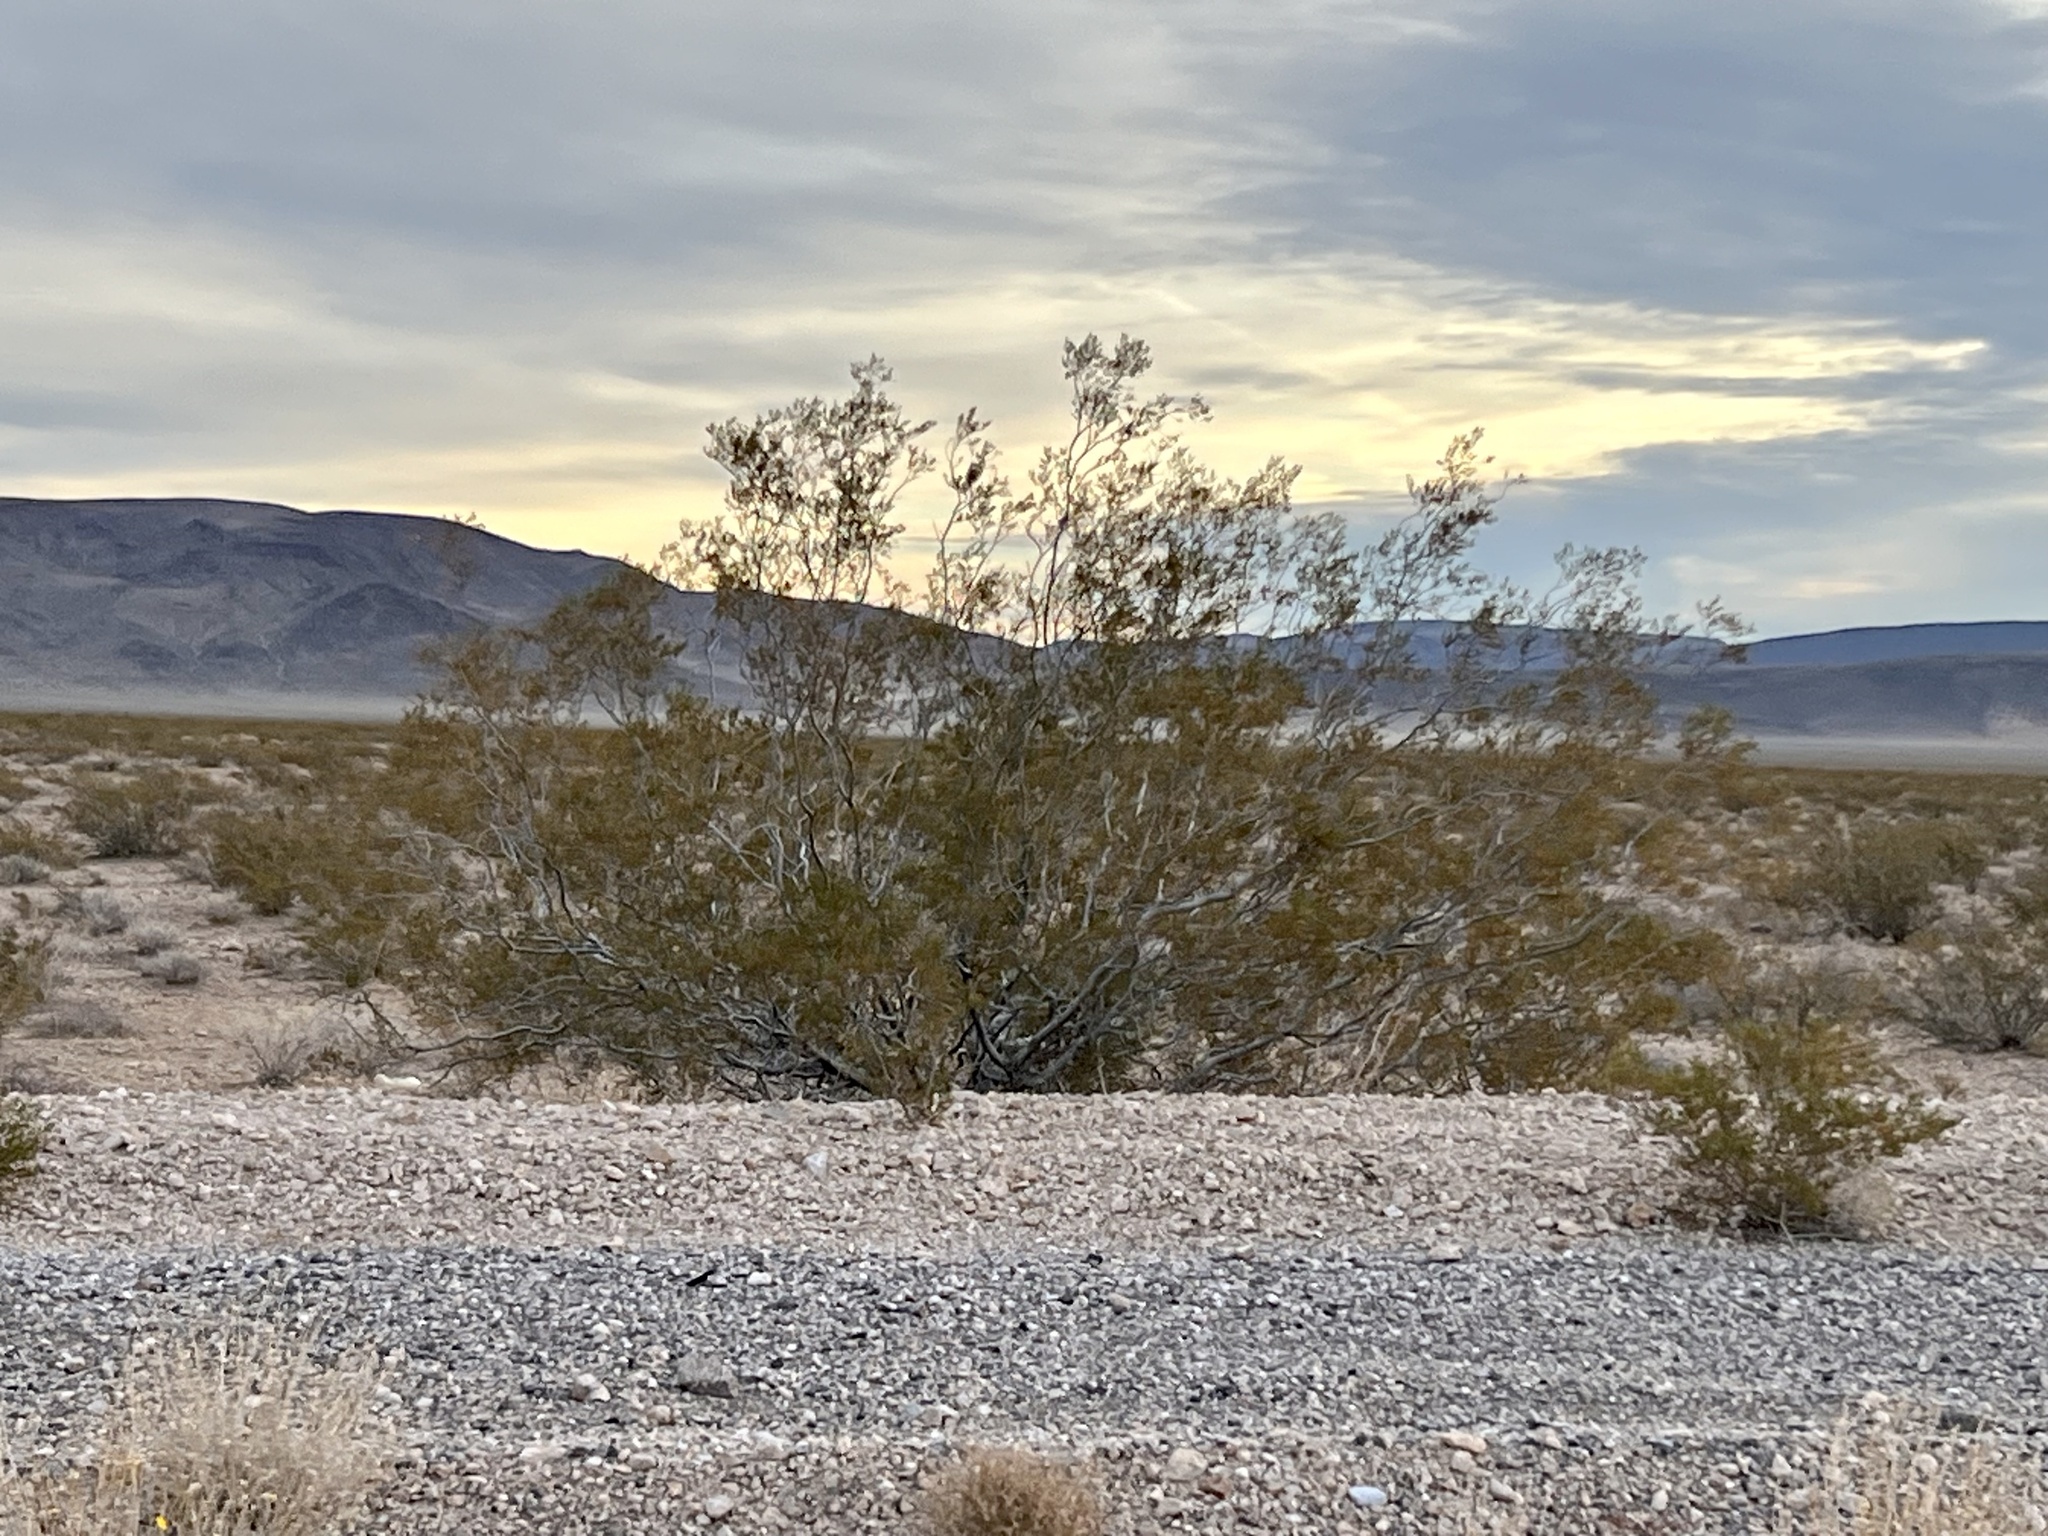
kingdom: Plantae
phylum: Tracheophyta
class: Magnoliopsida
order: Zygophyllales
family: Zygophyllaceae
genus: Larrea
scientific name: Larrea tridentata
